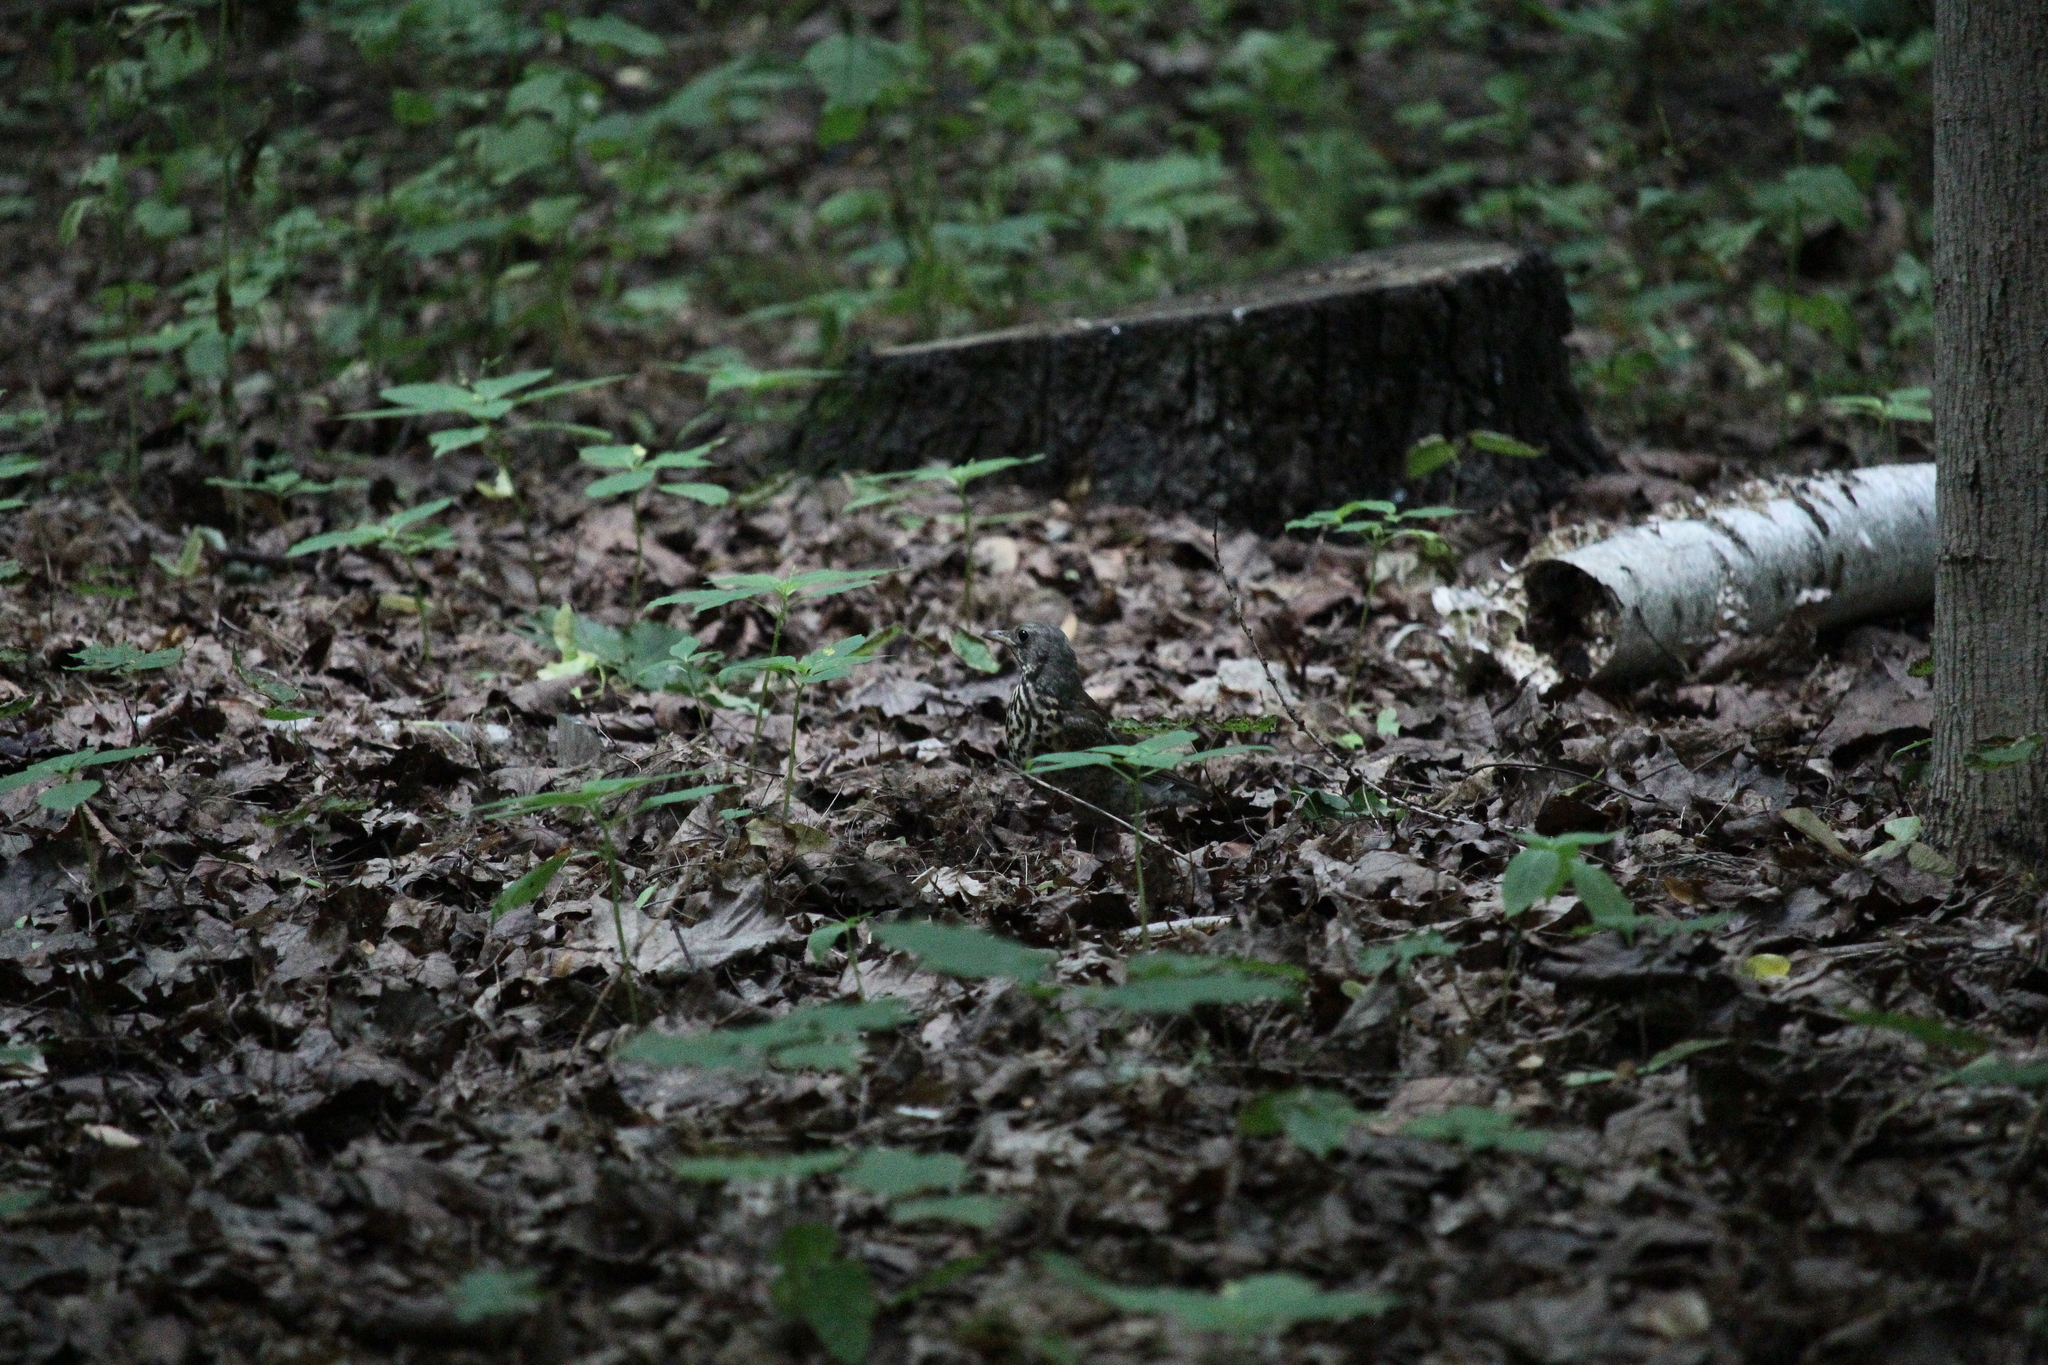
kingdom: Animalia
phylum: Chordata
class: Aves
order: Passeriformes
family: Turdidae
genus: Turdus
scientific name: Turdus pilaris
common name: Fieldfare
